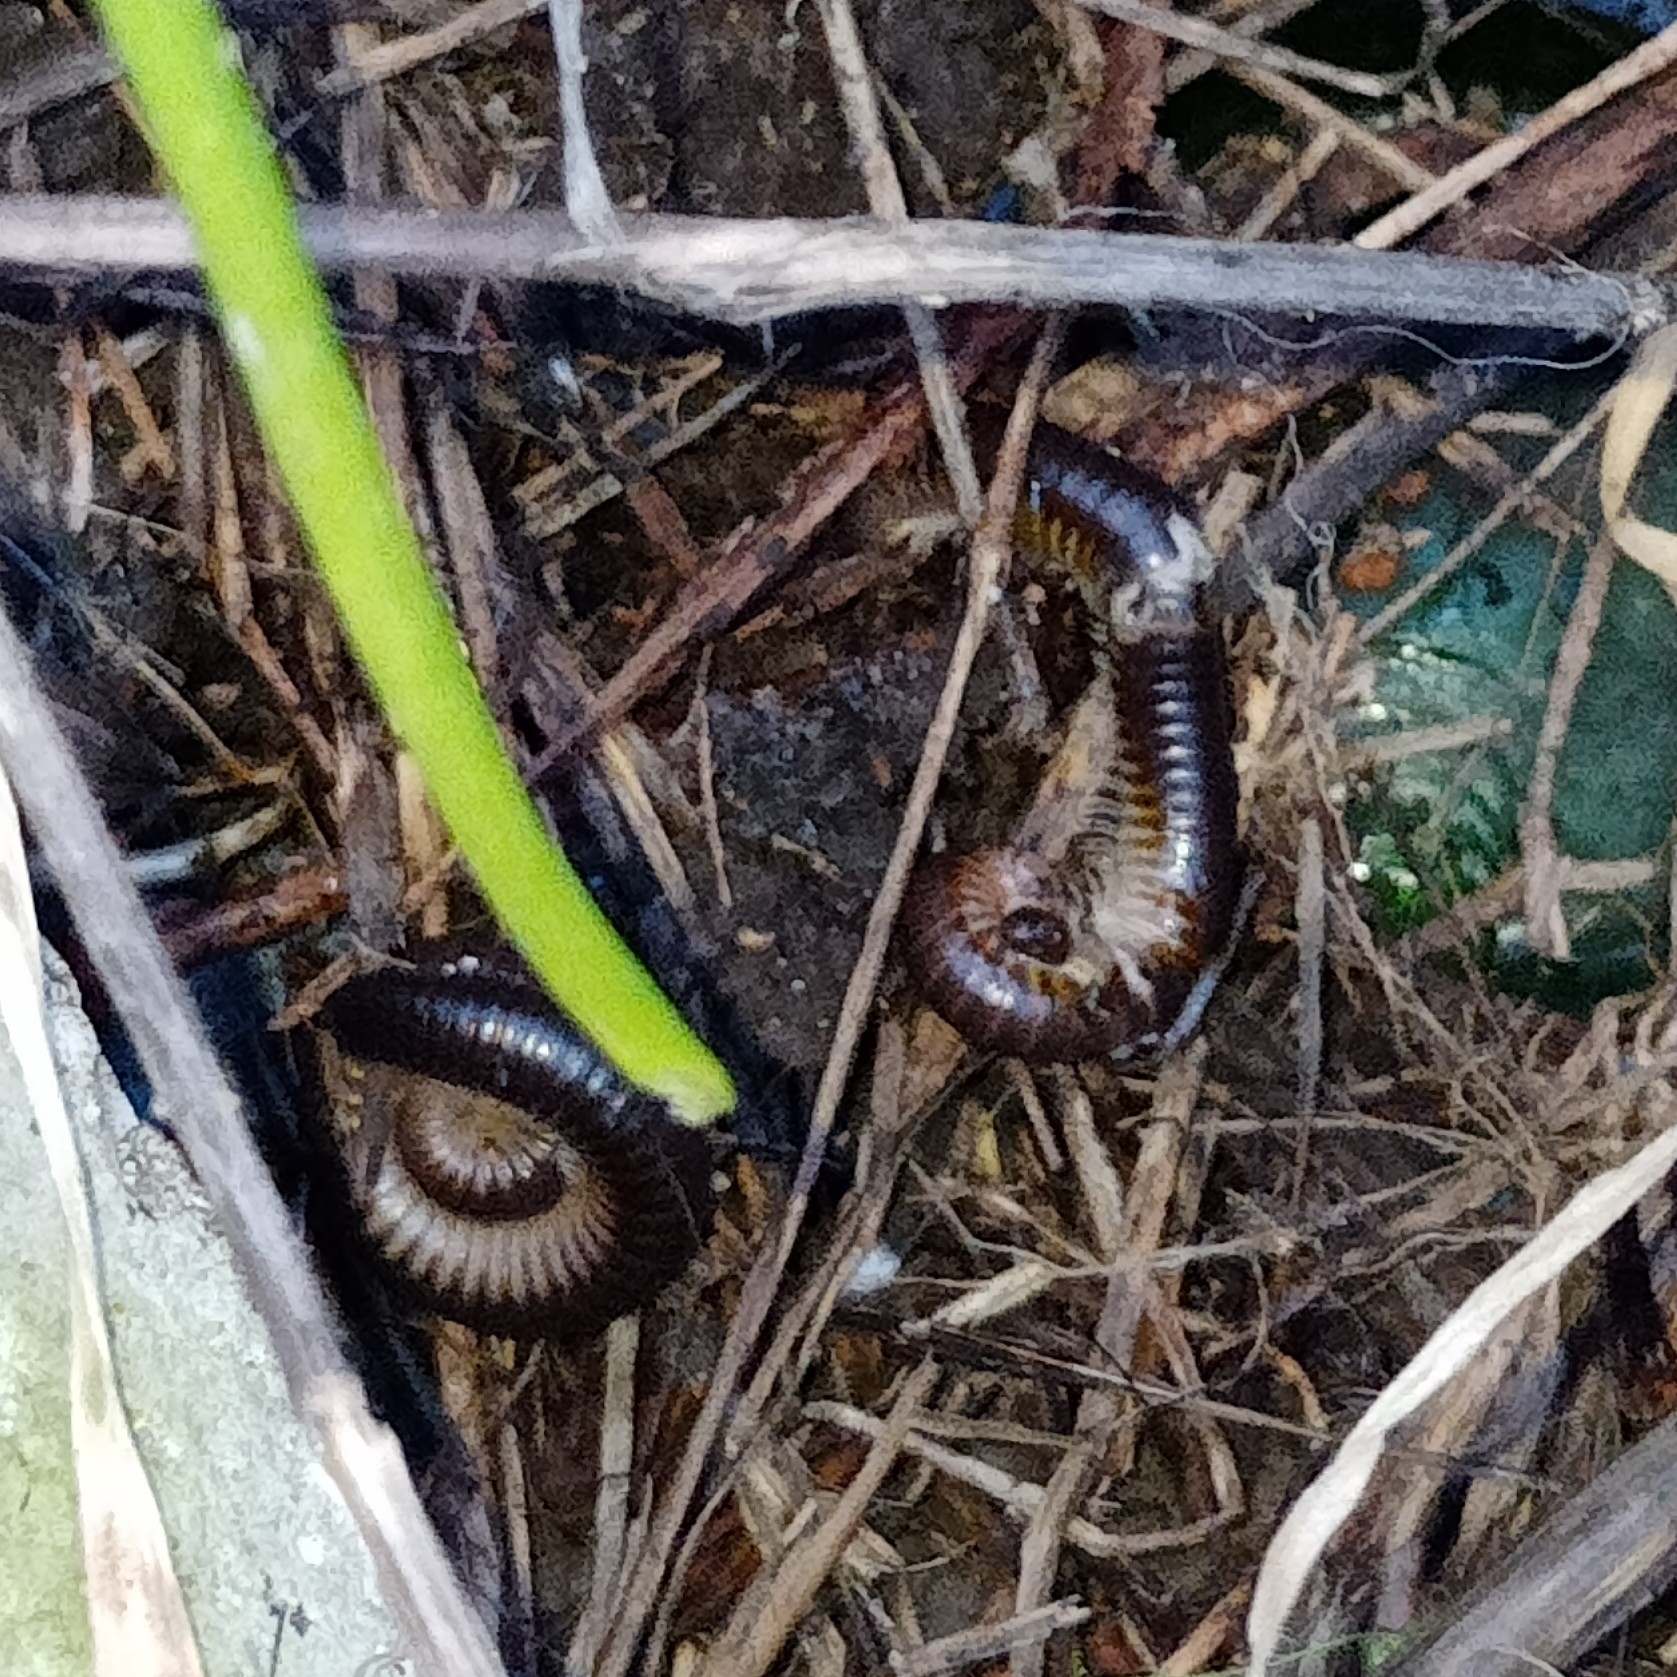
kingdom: Animalia
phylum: Arthropoda
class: Diplopoda
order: Julida
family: Julidae
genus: Pachyiulus
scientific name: Pachyiulus flavipes
